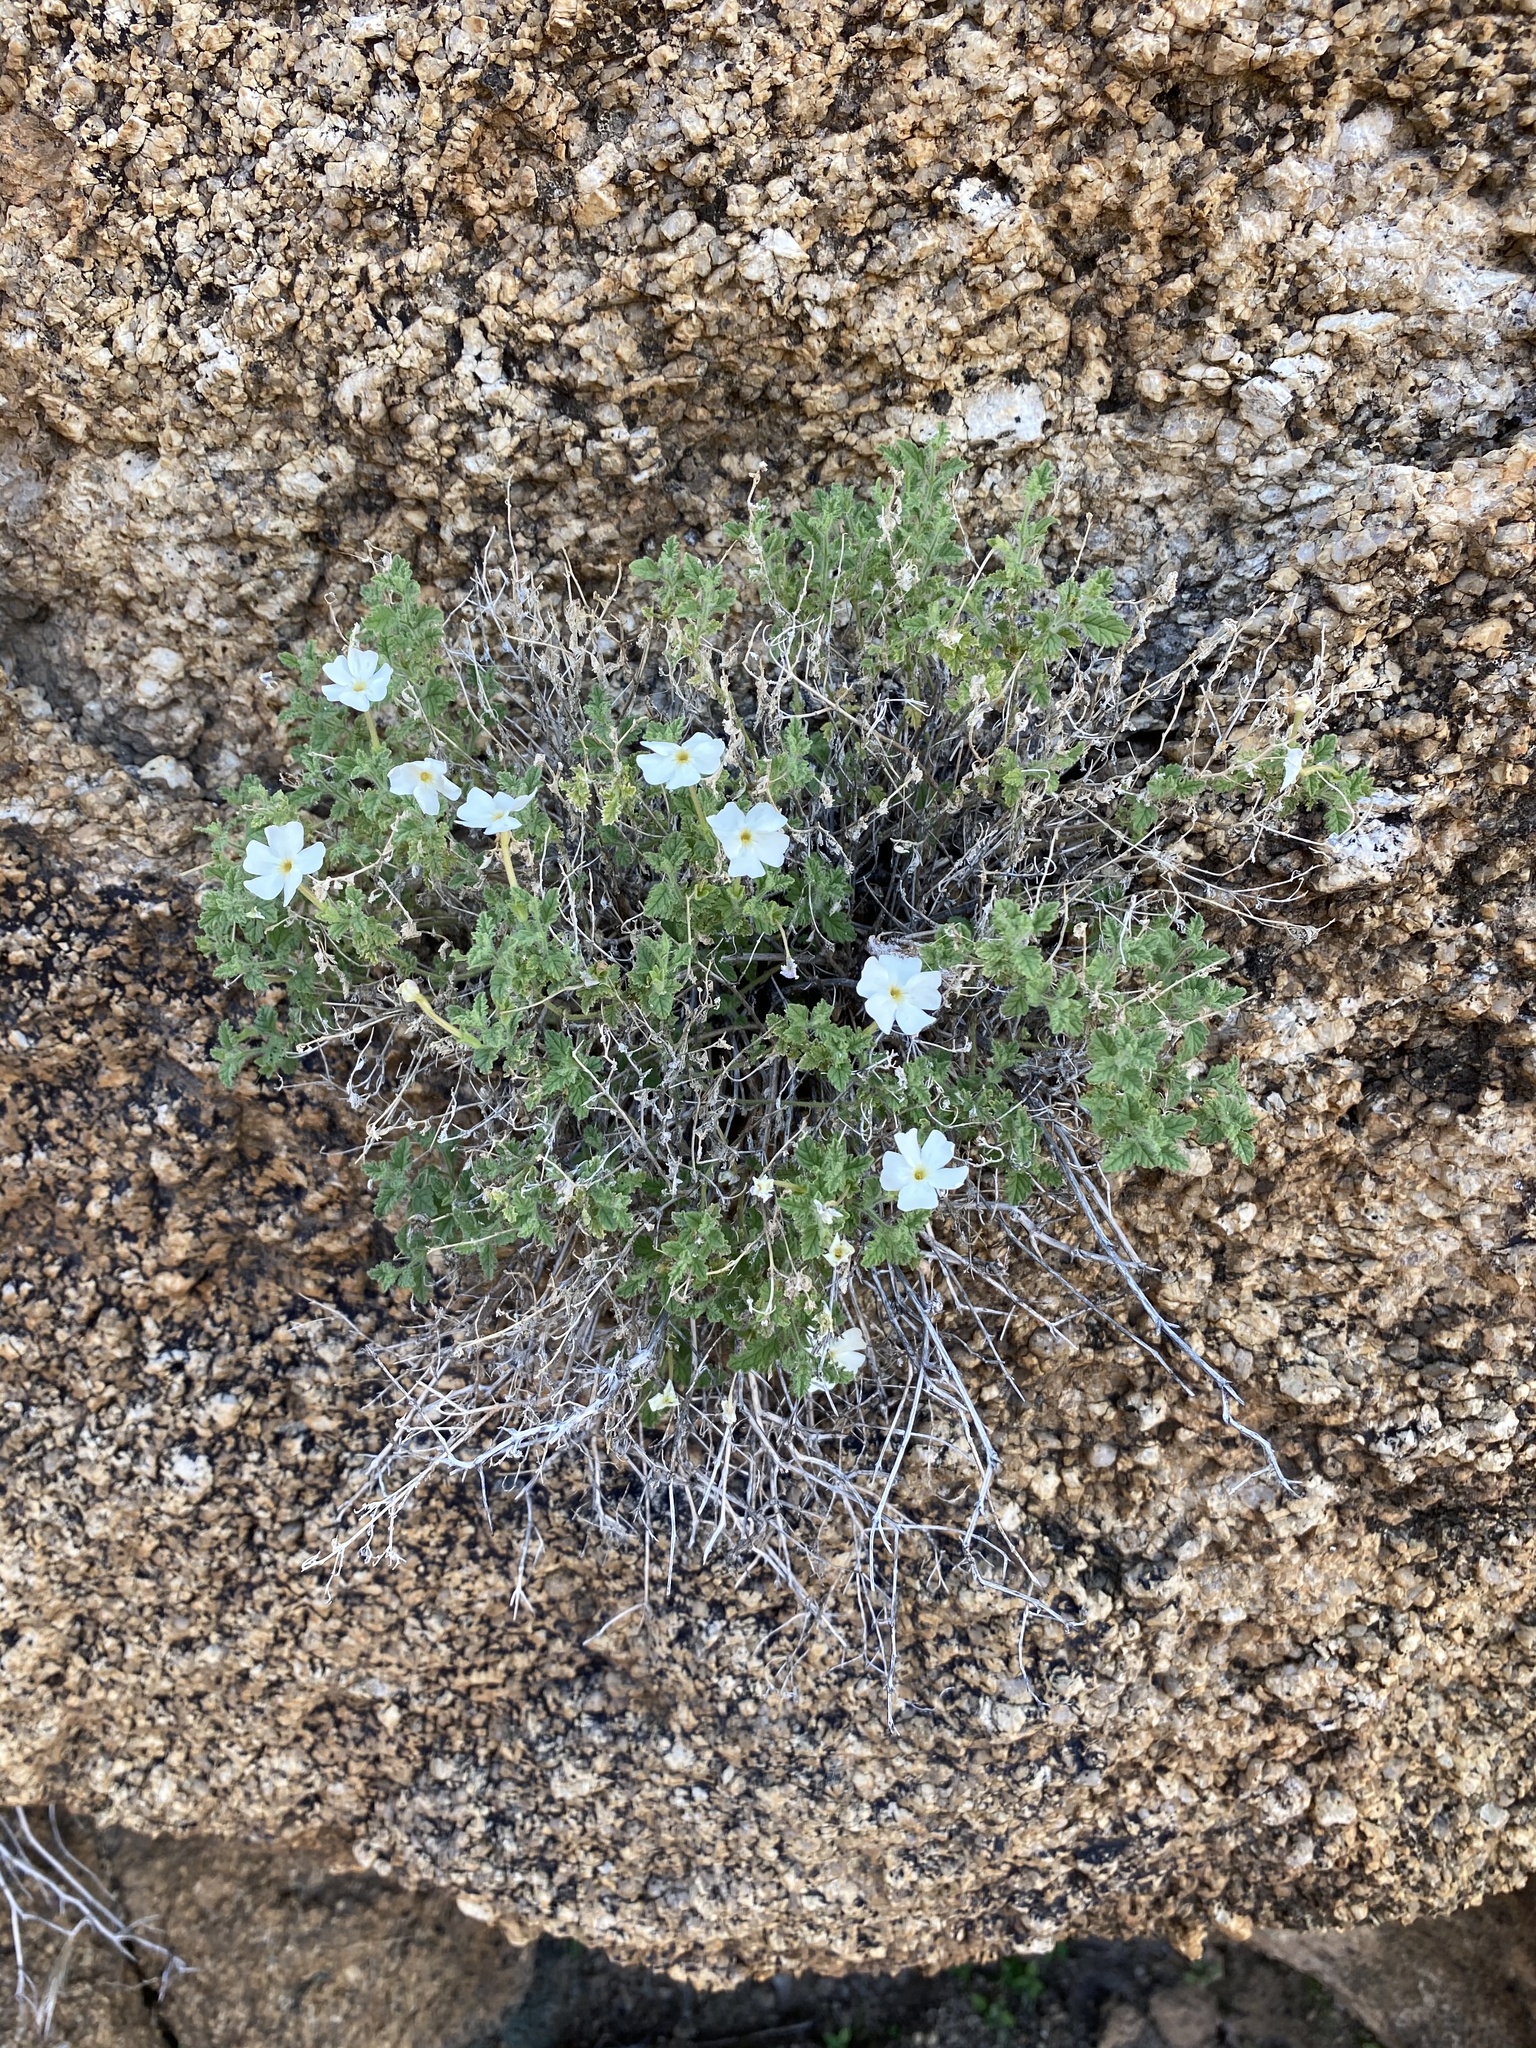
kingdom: Plantae
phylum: Tracheophyta
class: Magnoliopsida
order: Lamiales
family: Scrophulariaceae
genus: Jamesbrittenia
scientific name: Jamesbrittenia pallida
